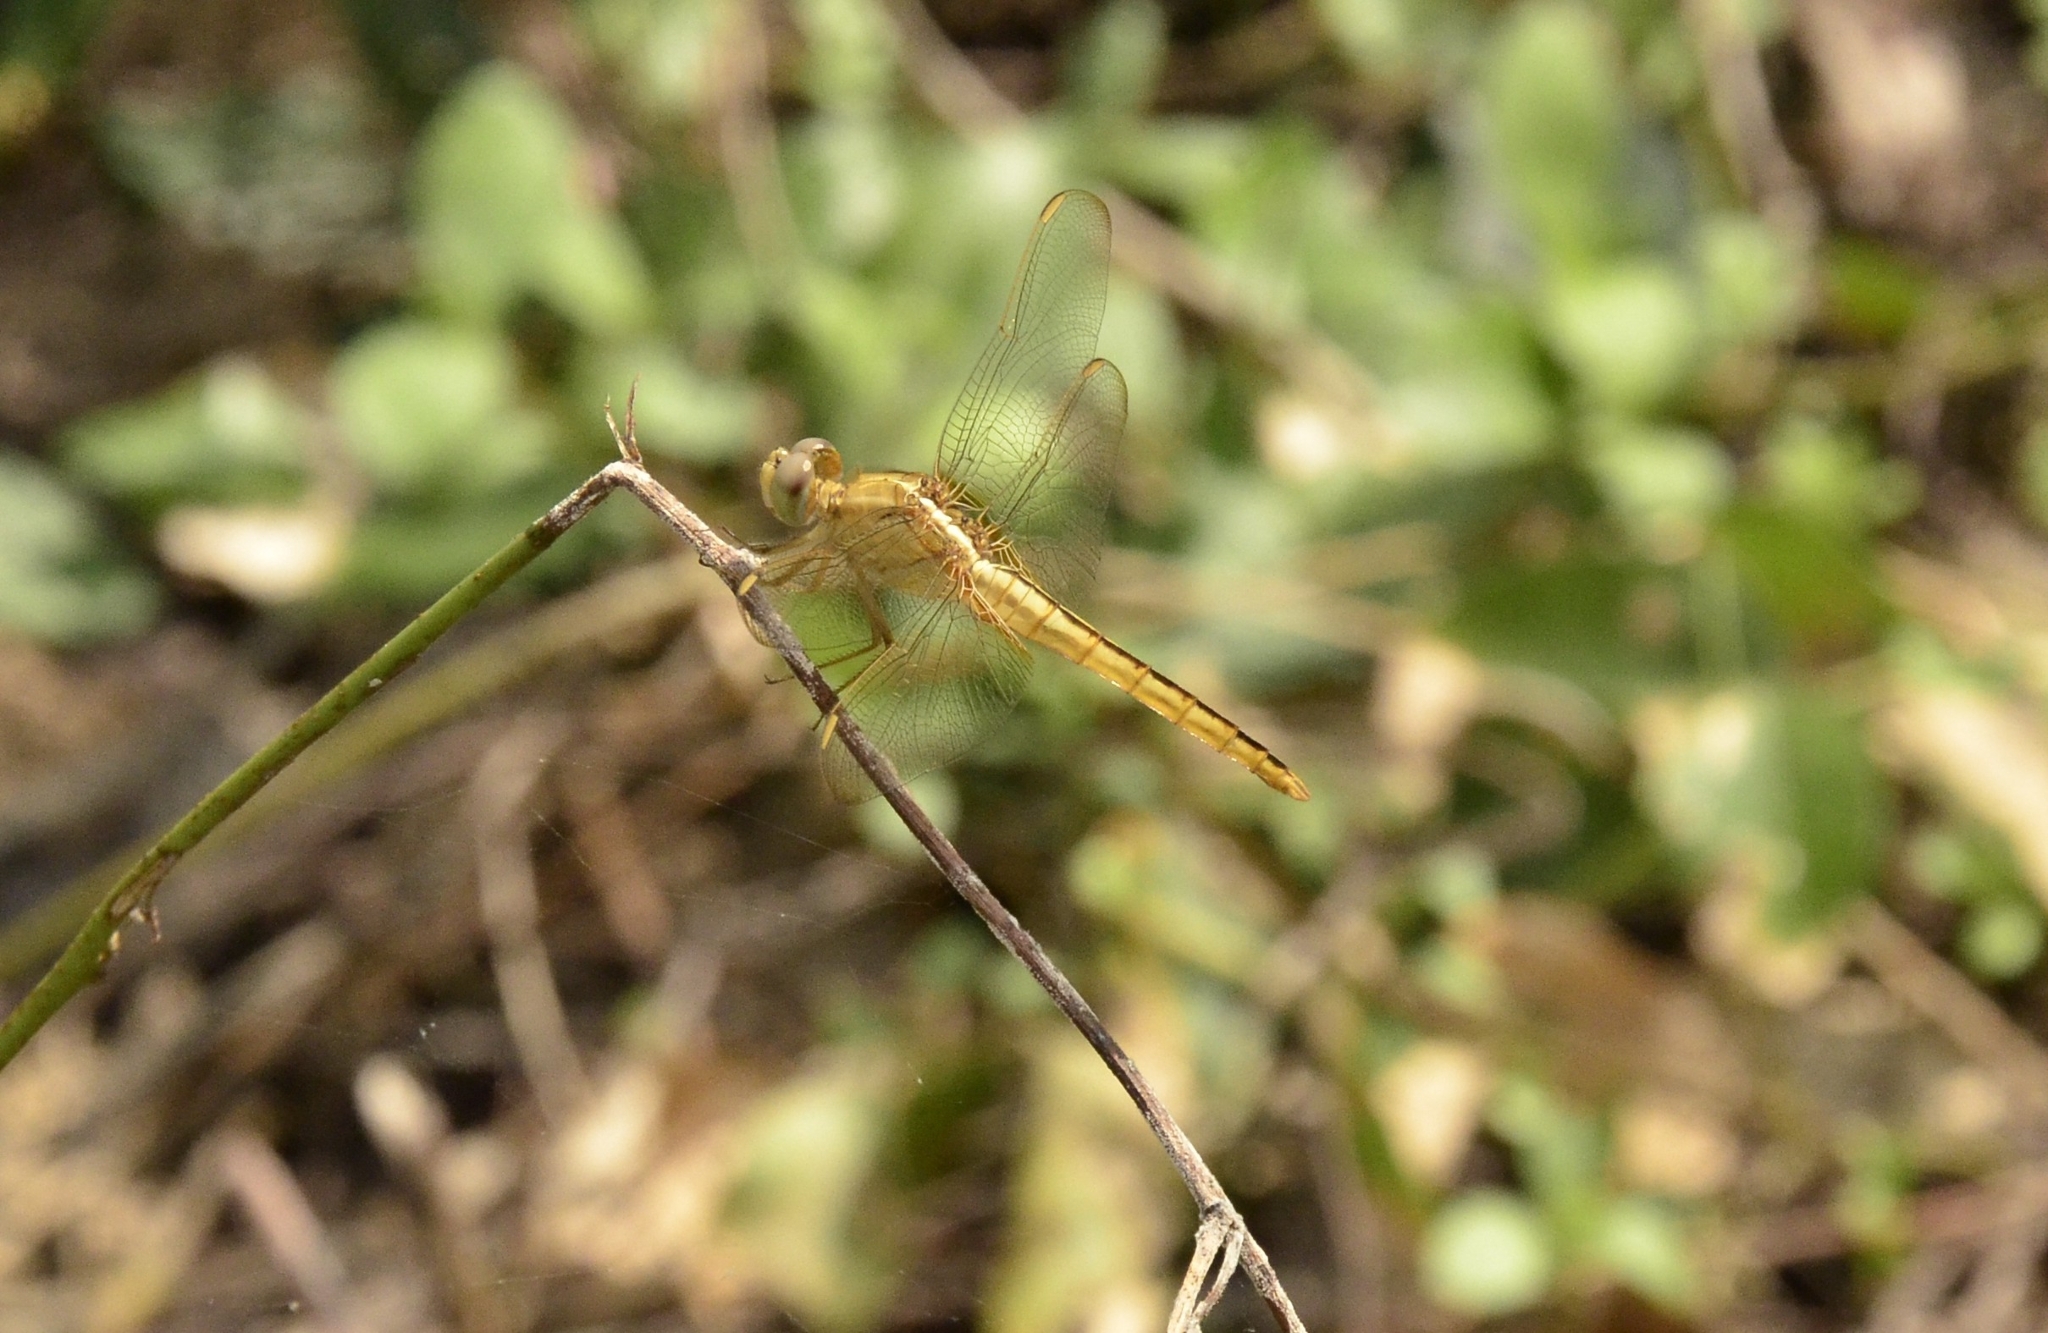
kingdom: Animalia
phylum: Arthropoda
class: Insecta
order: Odonata
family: Libellulidae
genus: Crocothemis
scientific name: Crocothemis servilia
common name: Scarlet skimmer
